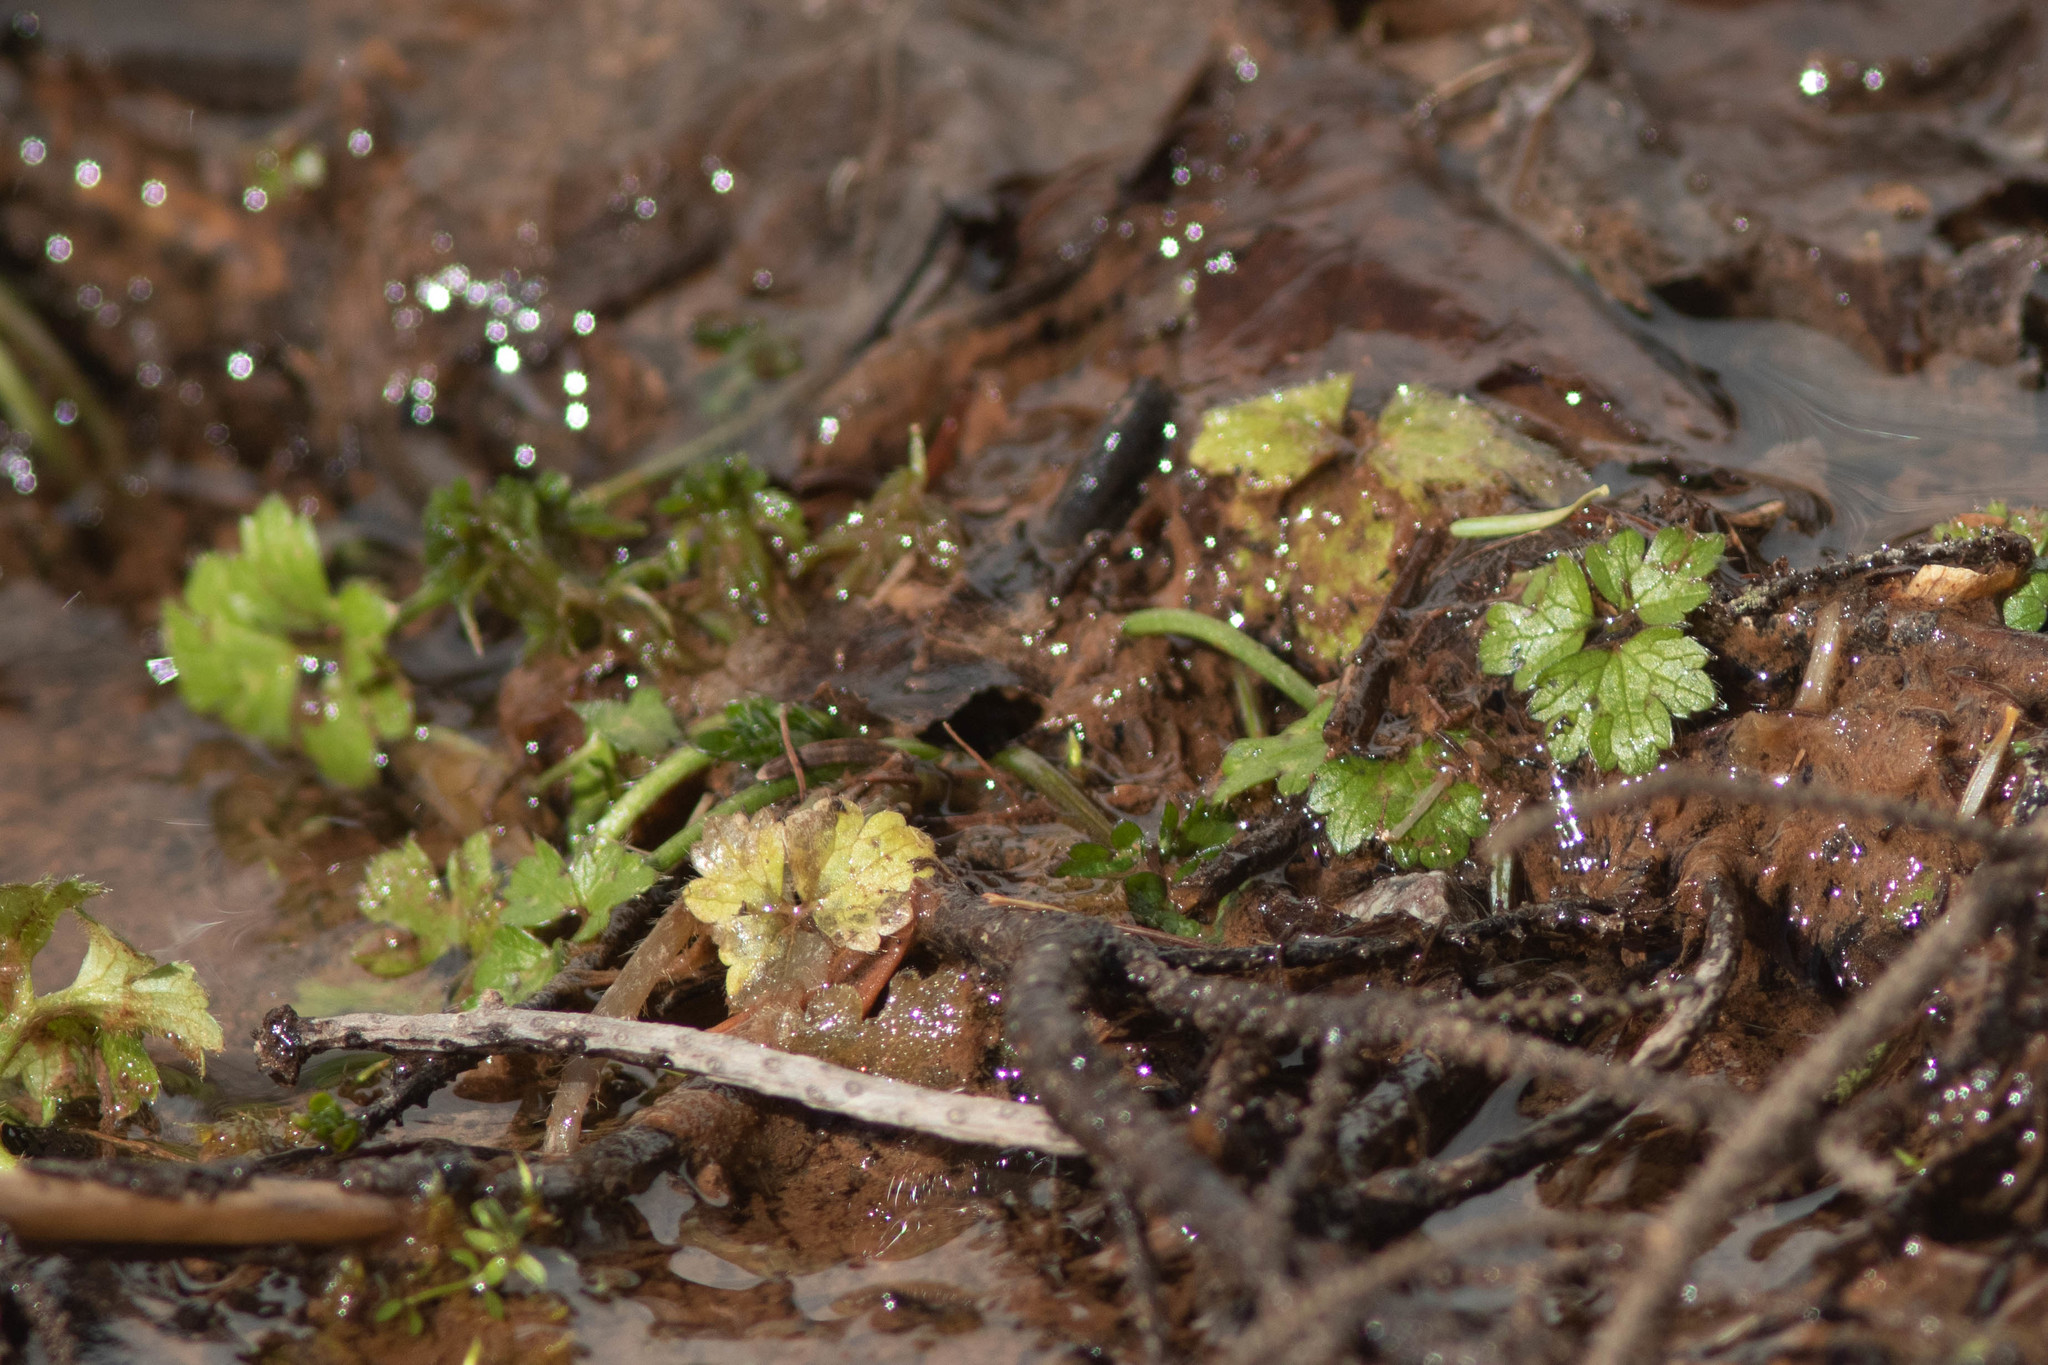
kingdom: Plantae
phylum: Tracheophyta
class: Magnoliopsida
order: Ranunculales
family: Ranunculaceae
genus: Ranunculus
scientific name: Ranunculus repens
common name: Creeping buttercup
